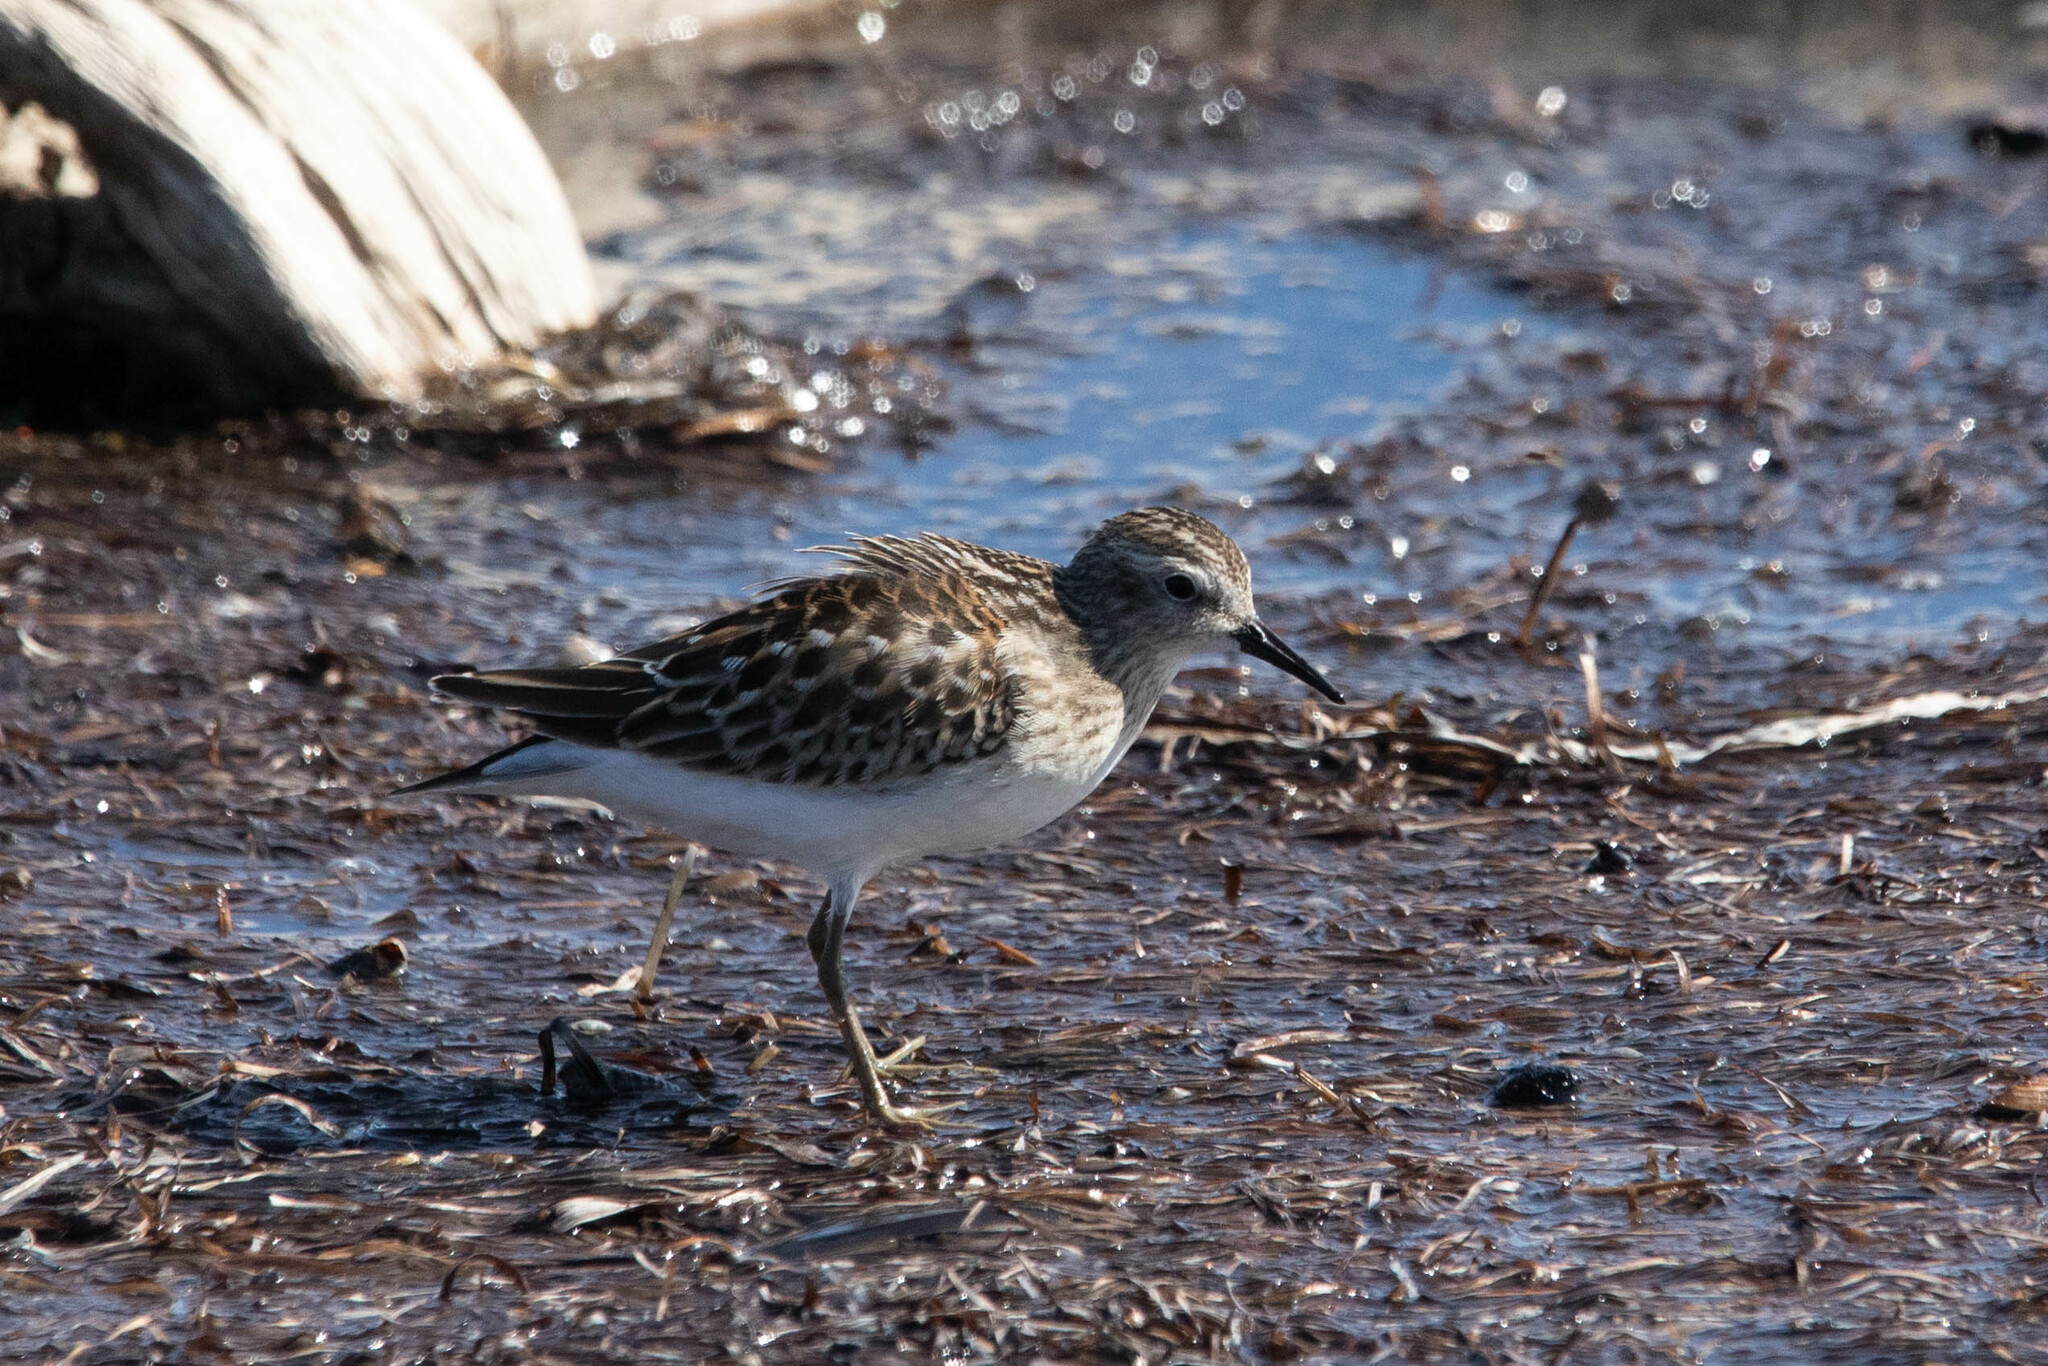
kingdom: Animalia
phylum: Chordata
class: Aves
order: Charadriiformes
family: Scolopacidae
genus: Calidris
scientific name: Calidris minutilla
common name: Least sandpiper
